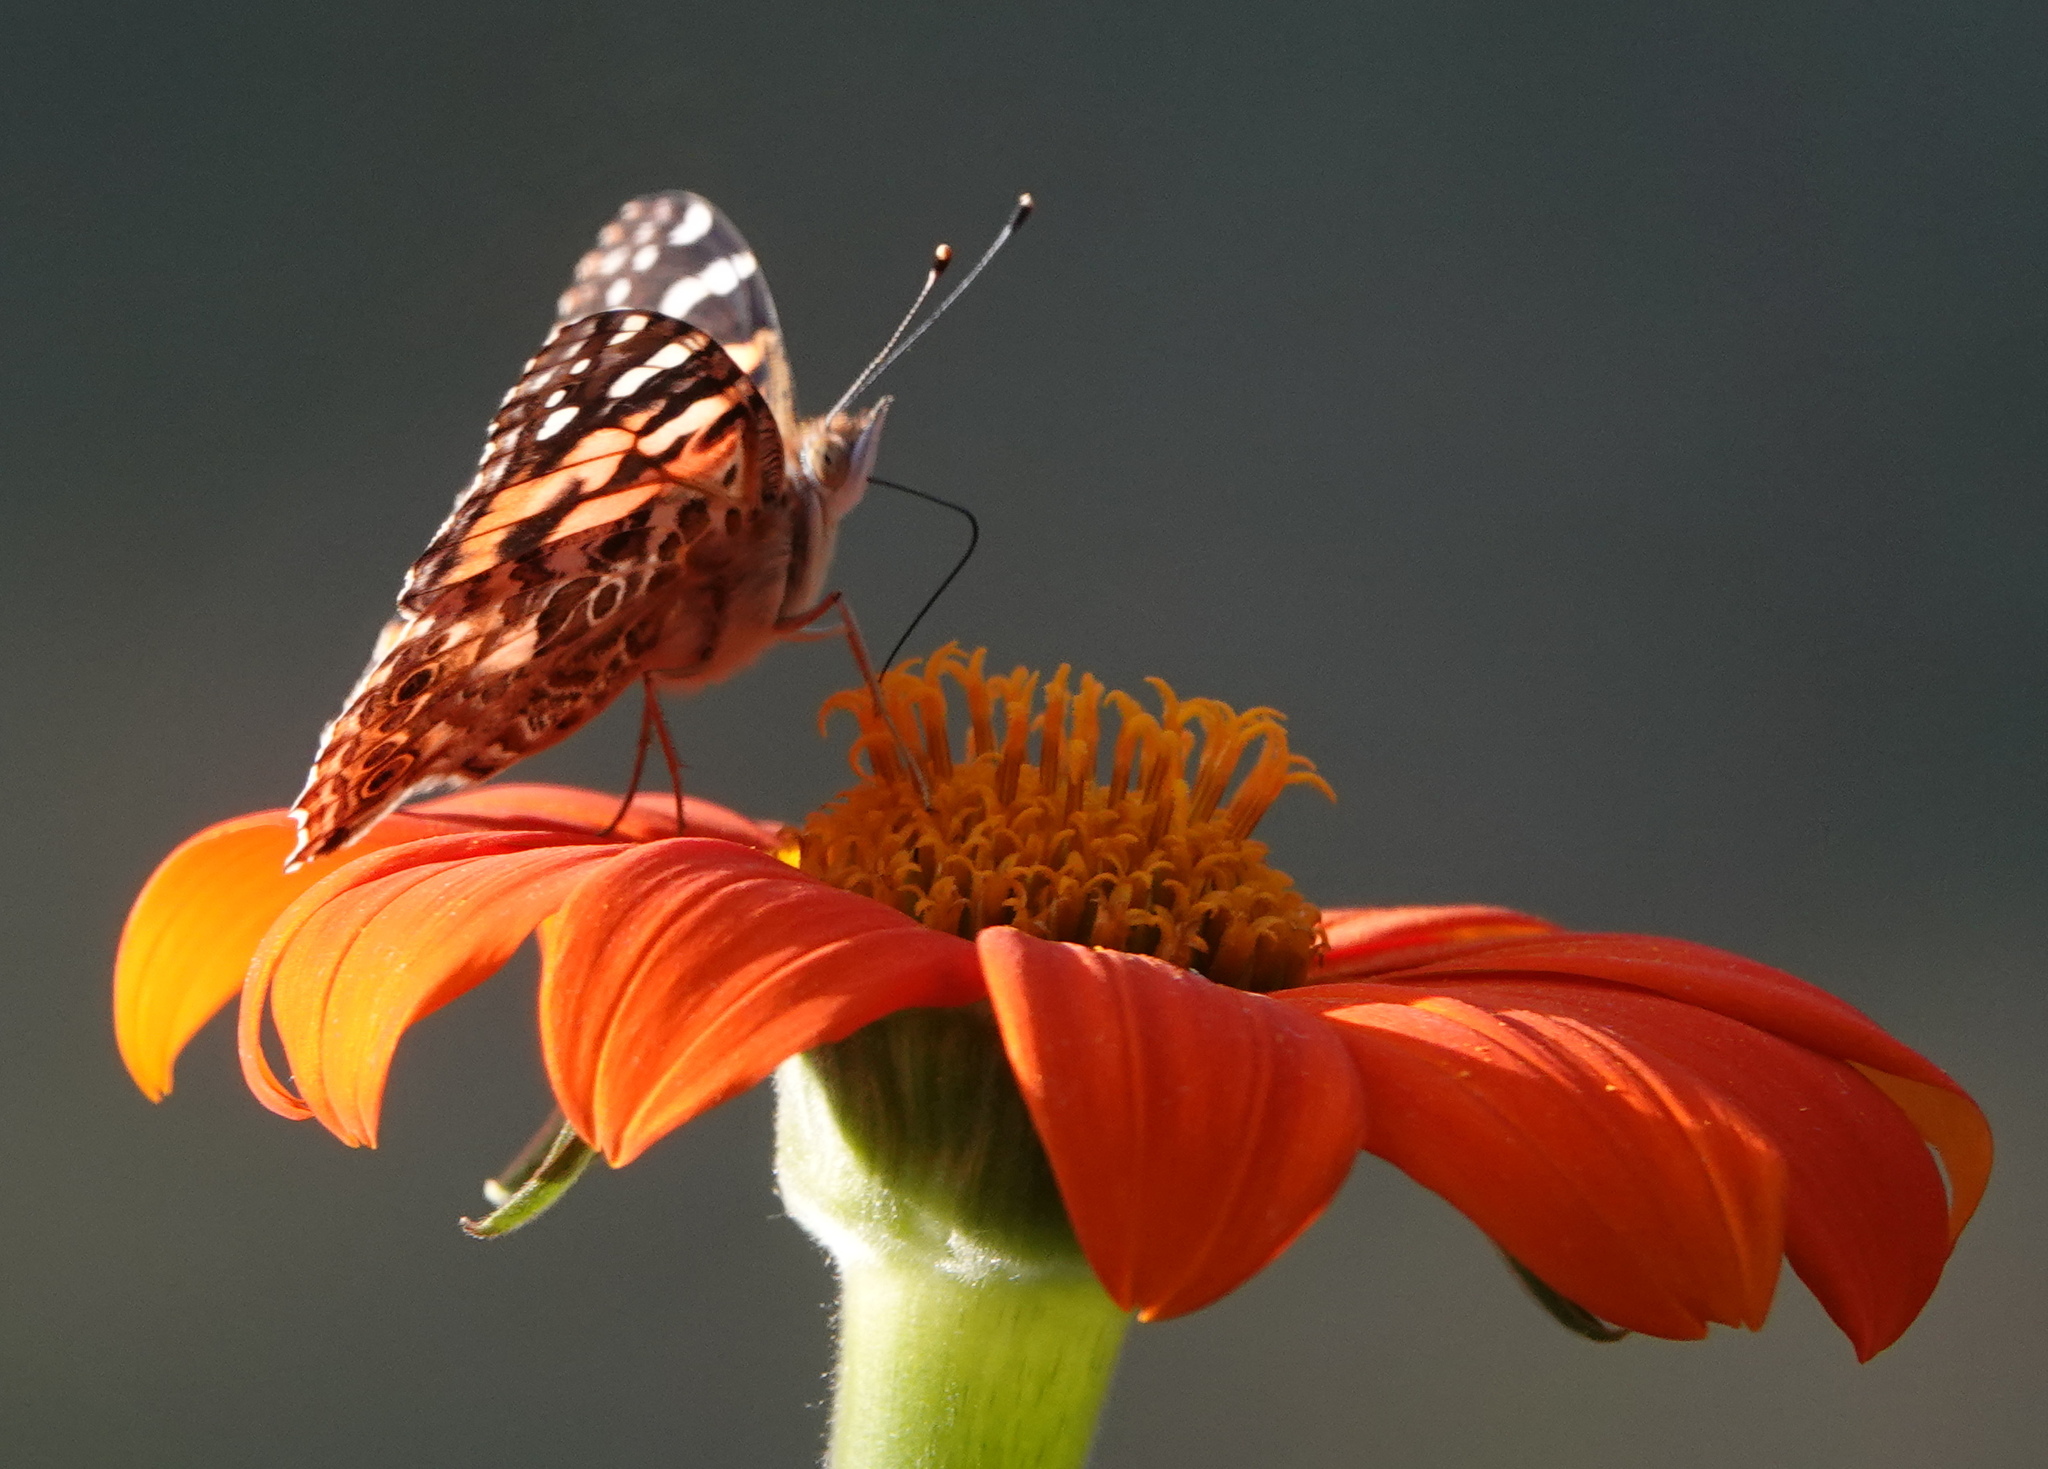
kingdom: Animalia
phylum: Arthropoda
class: Insecta
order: Lepidoptera
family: Nymphalidae
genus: Vanessa
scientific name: Vanessa cardui
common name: Painted lady
